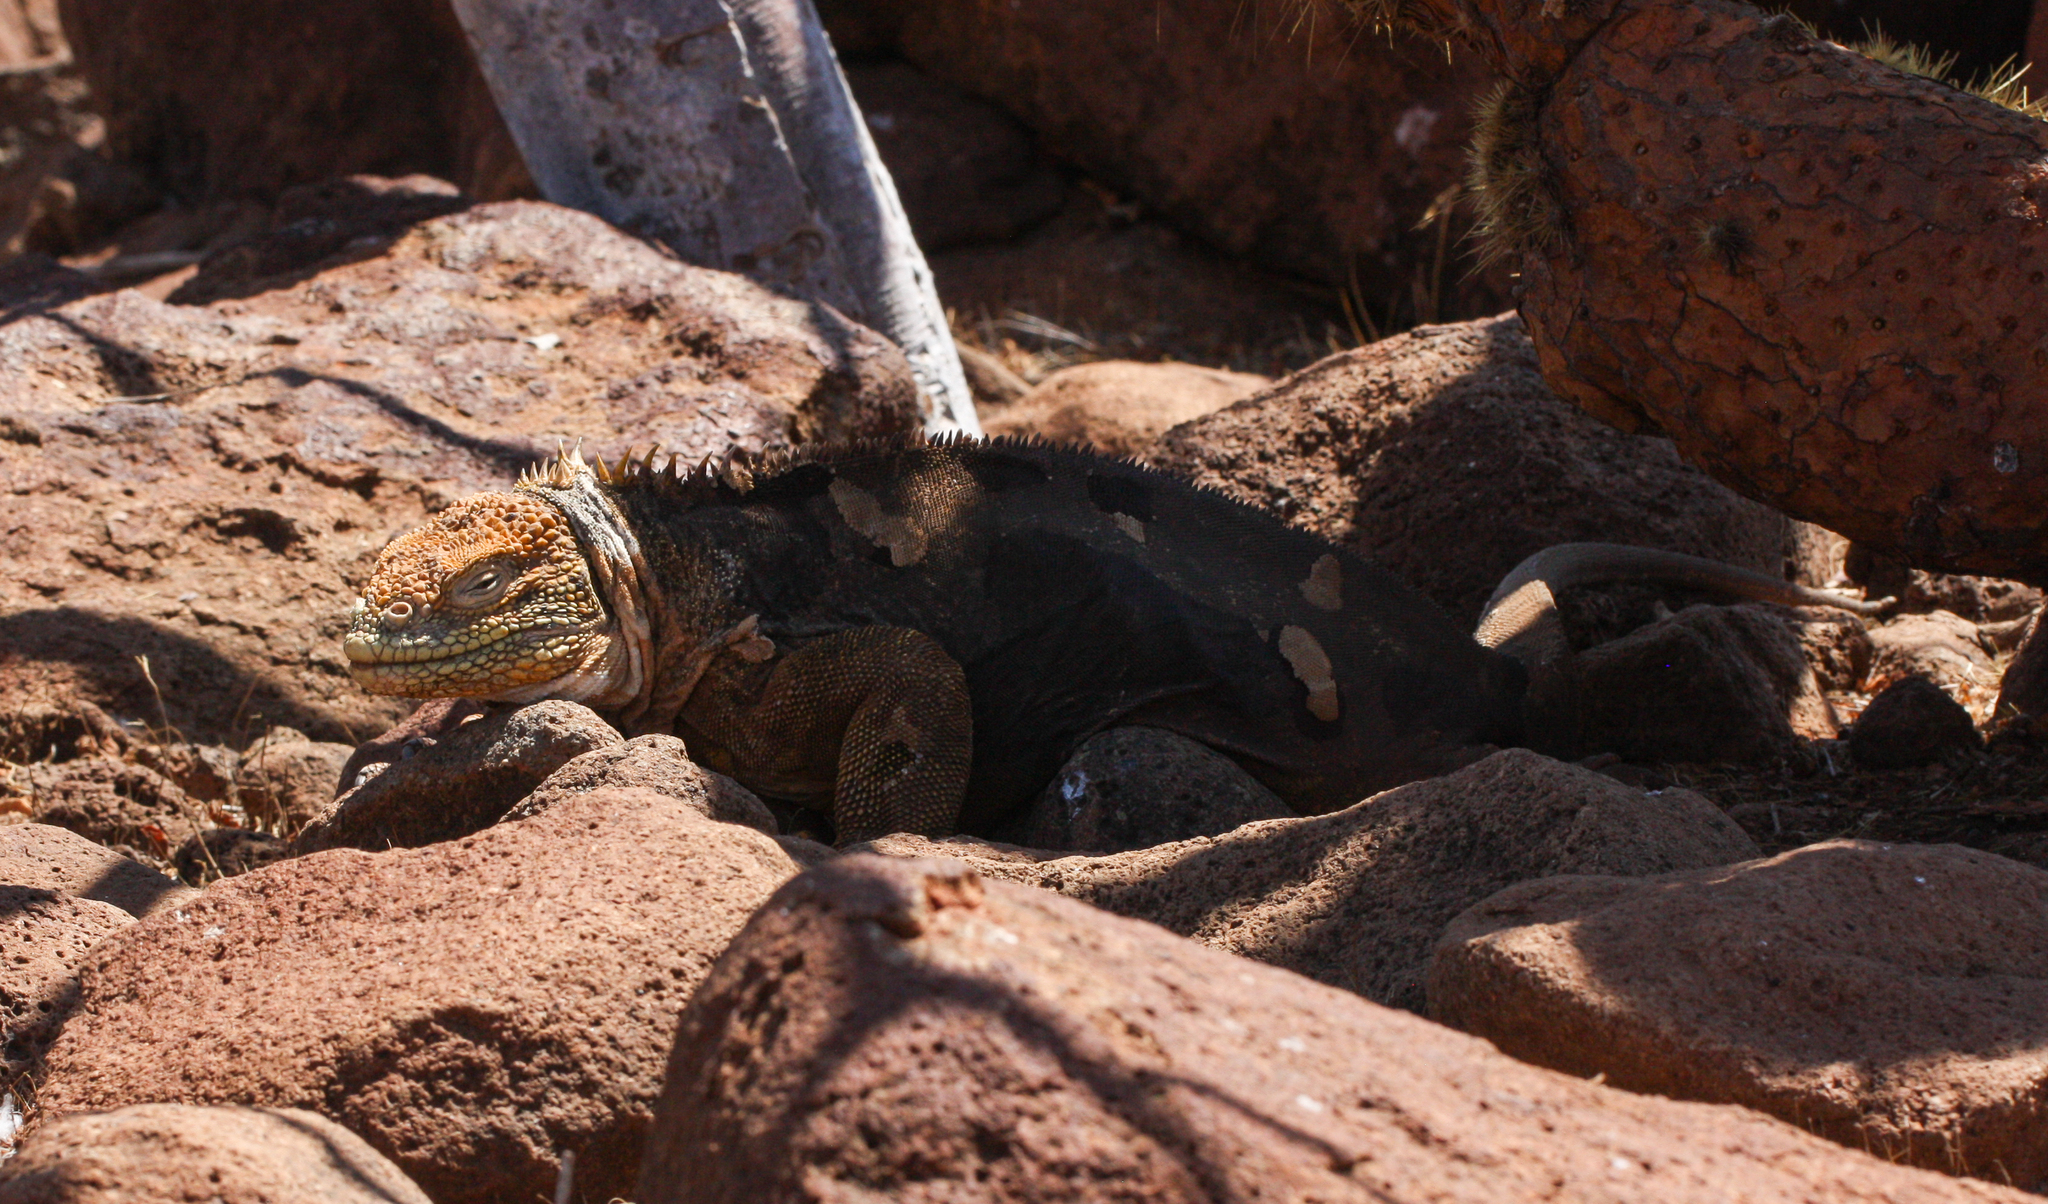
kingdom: Animalia
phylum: Chordata
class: Squamata
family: Iguanidae
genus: Conolophus
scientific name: Conolophus subcristatus
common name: Galapagos land iguana
